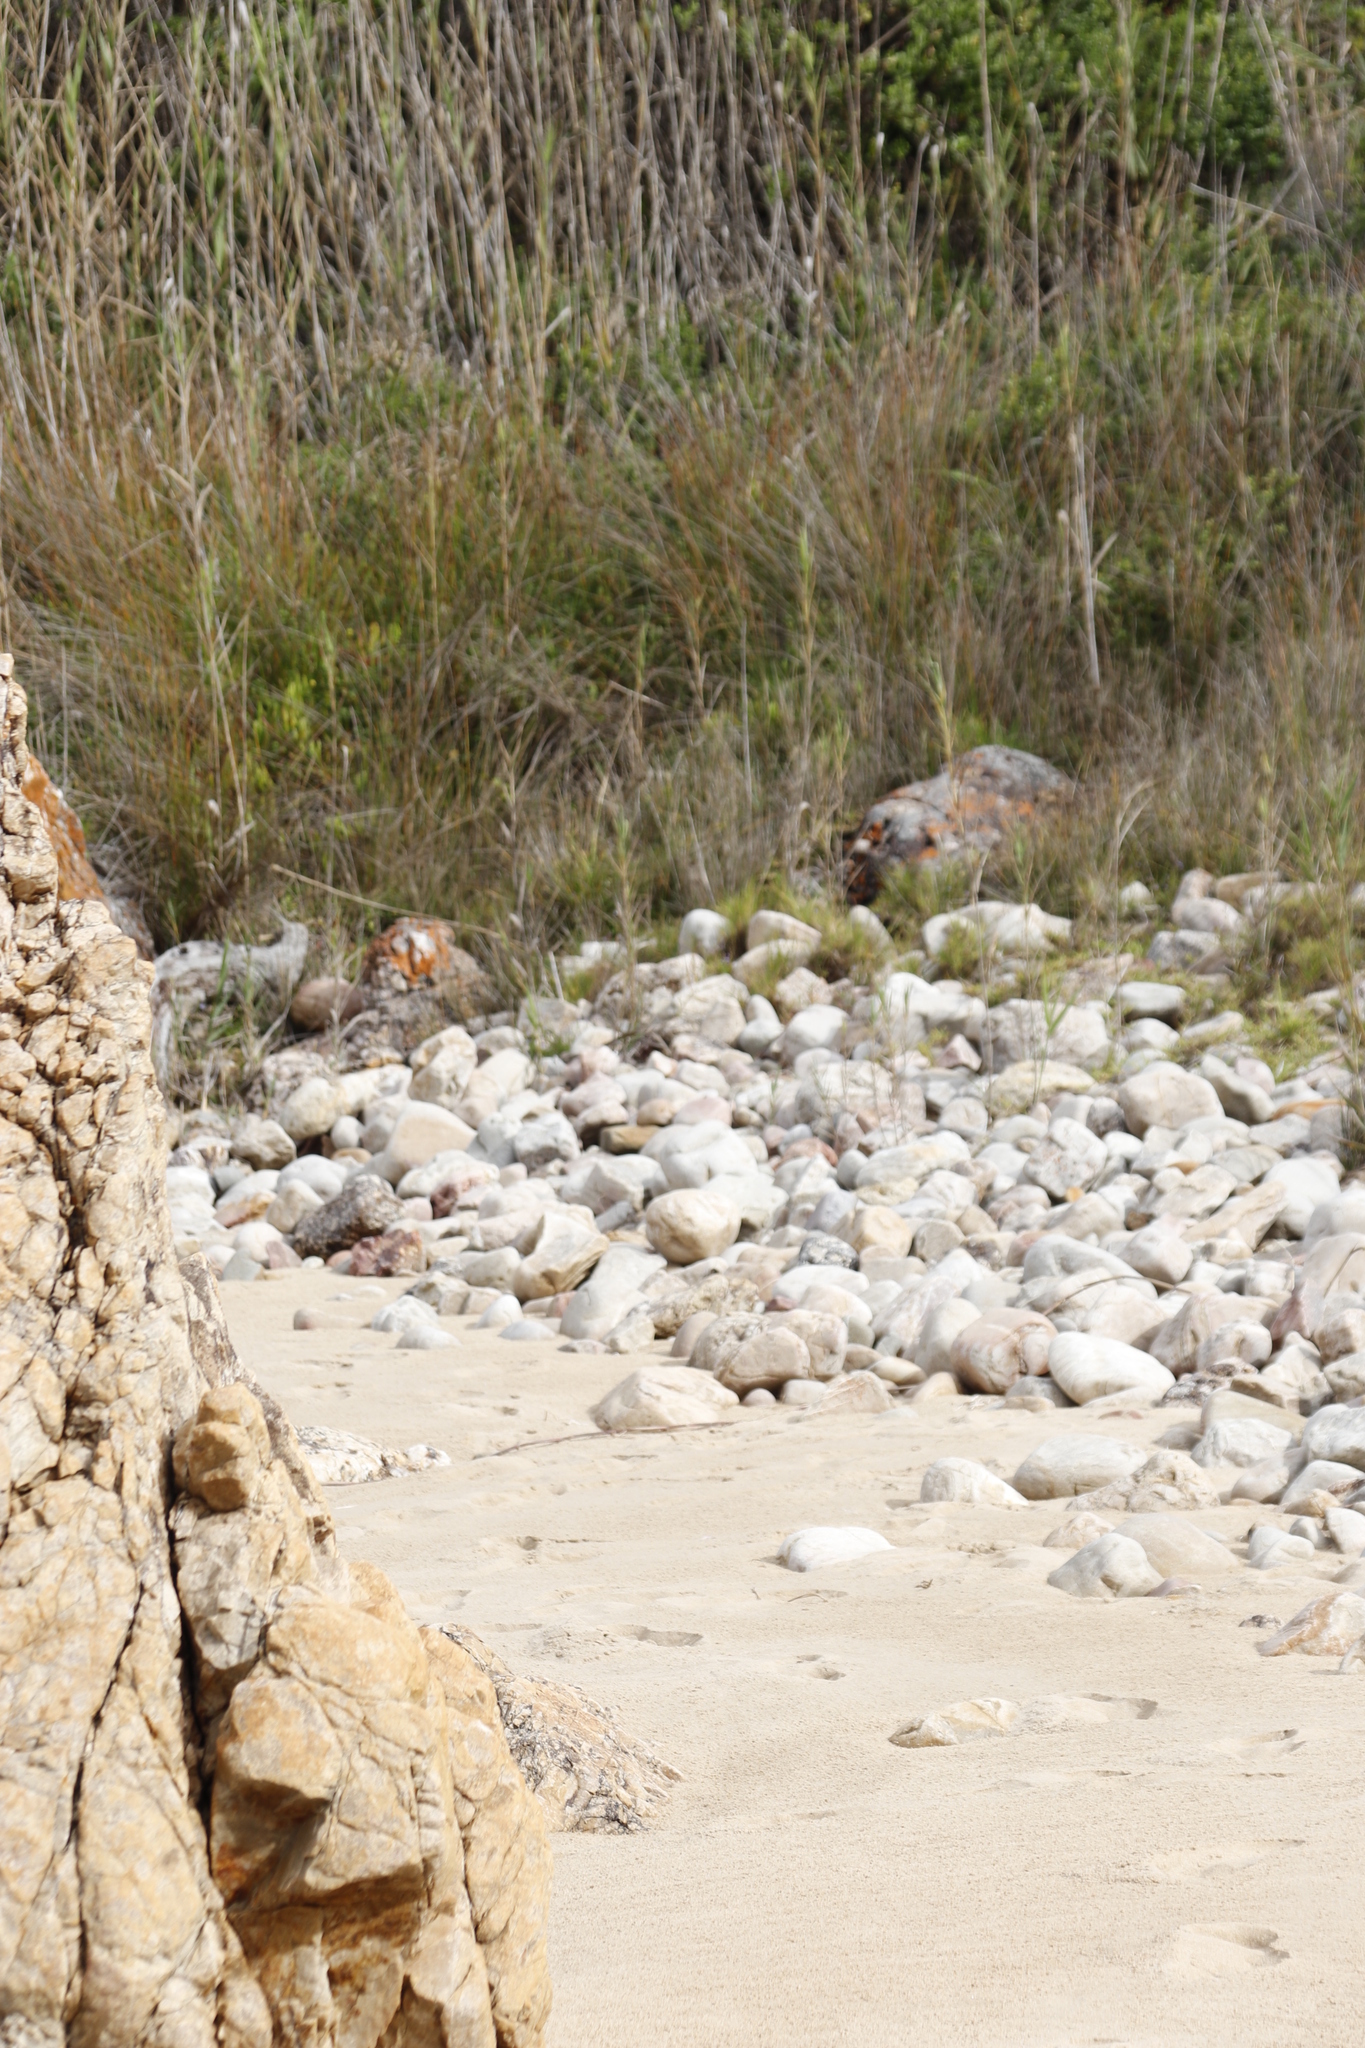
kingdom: Plantae
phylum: Tracheophyta
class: Liliopsida
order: Poales
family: Poaceae
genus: Phragmites
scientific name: Phragmites australis
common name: Common reed
